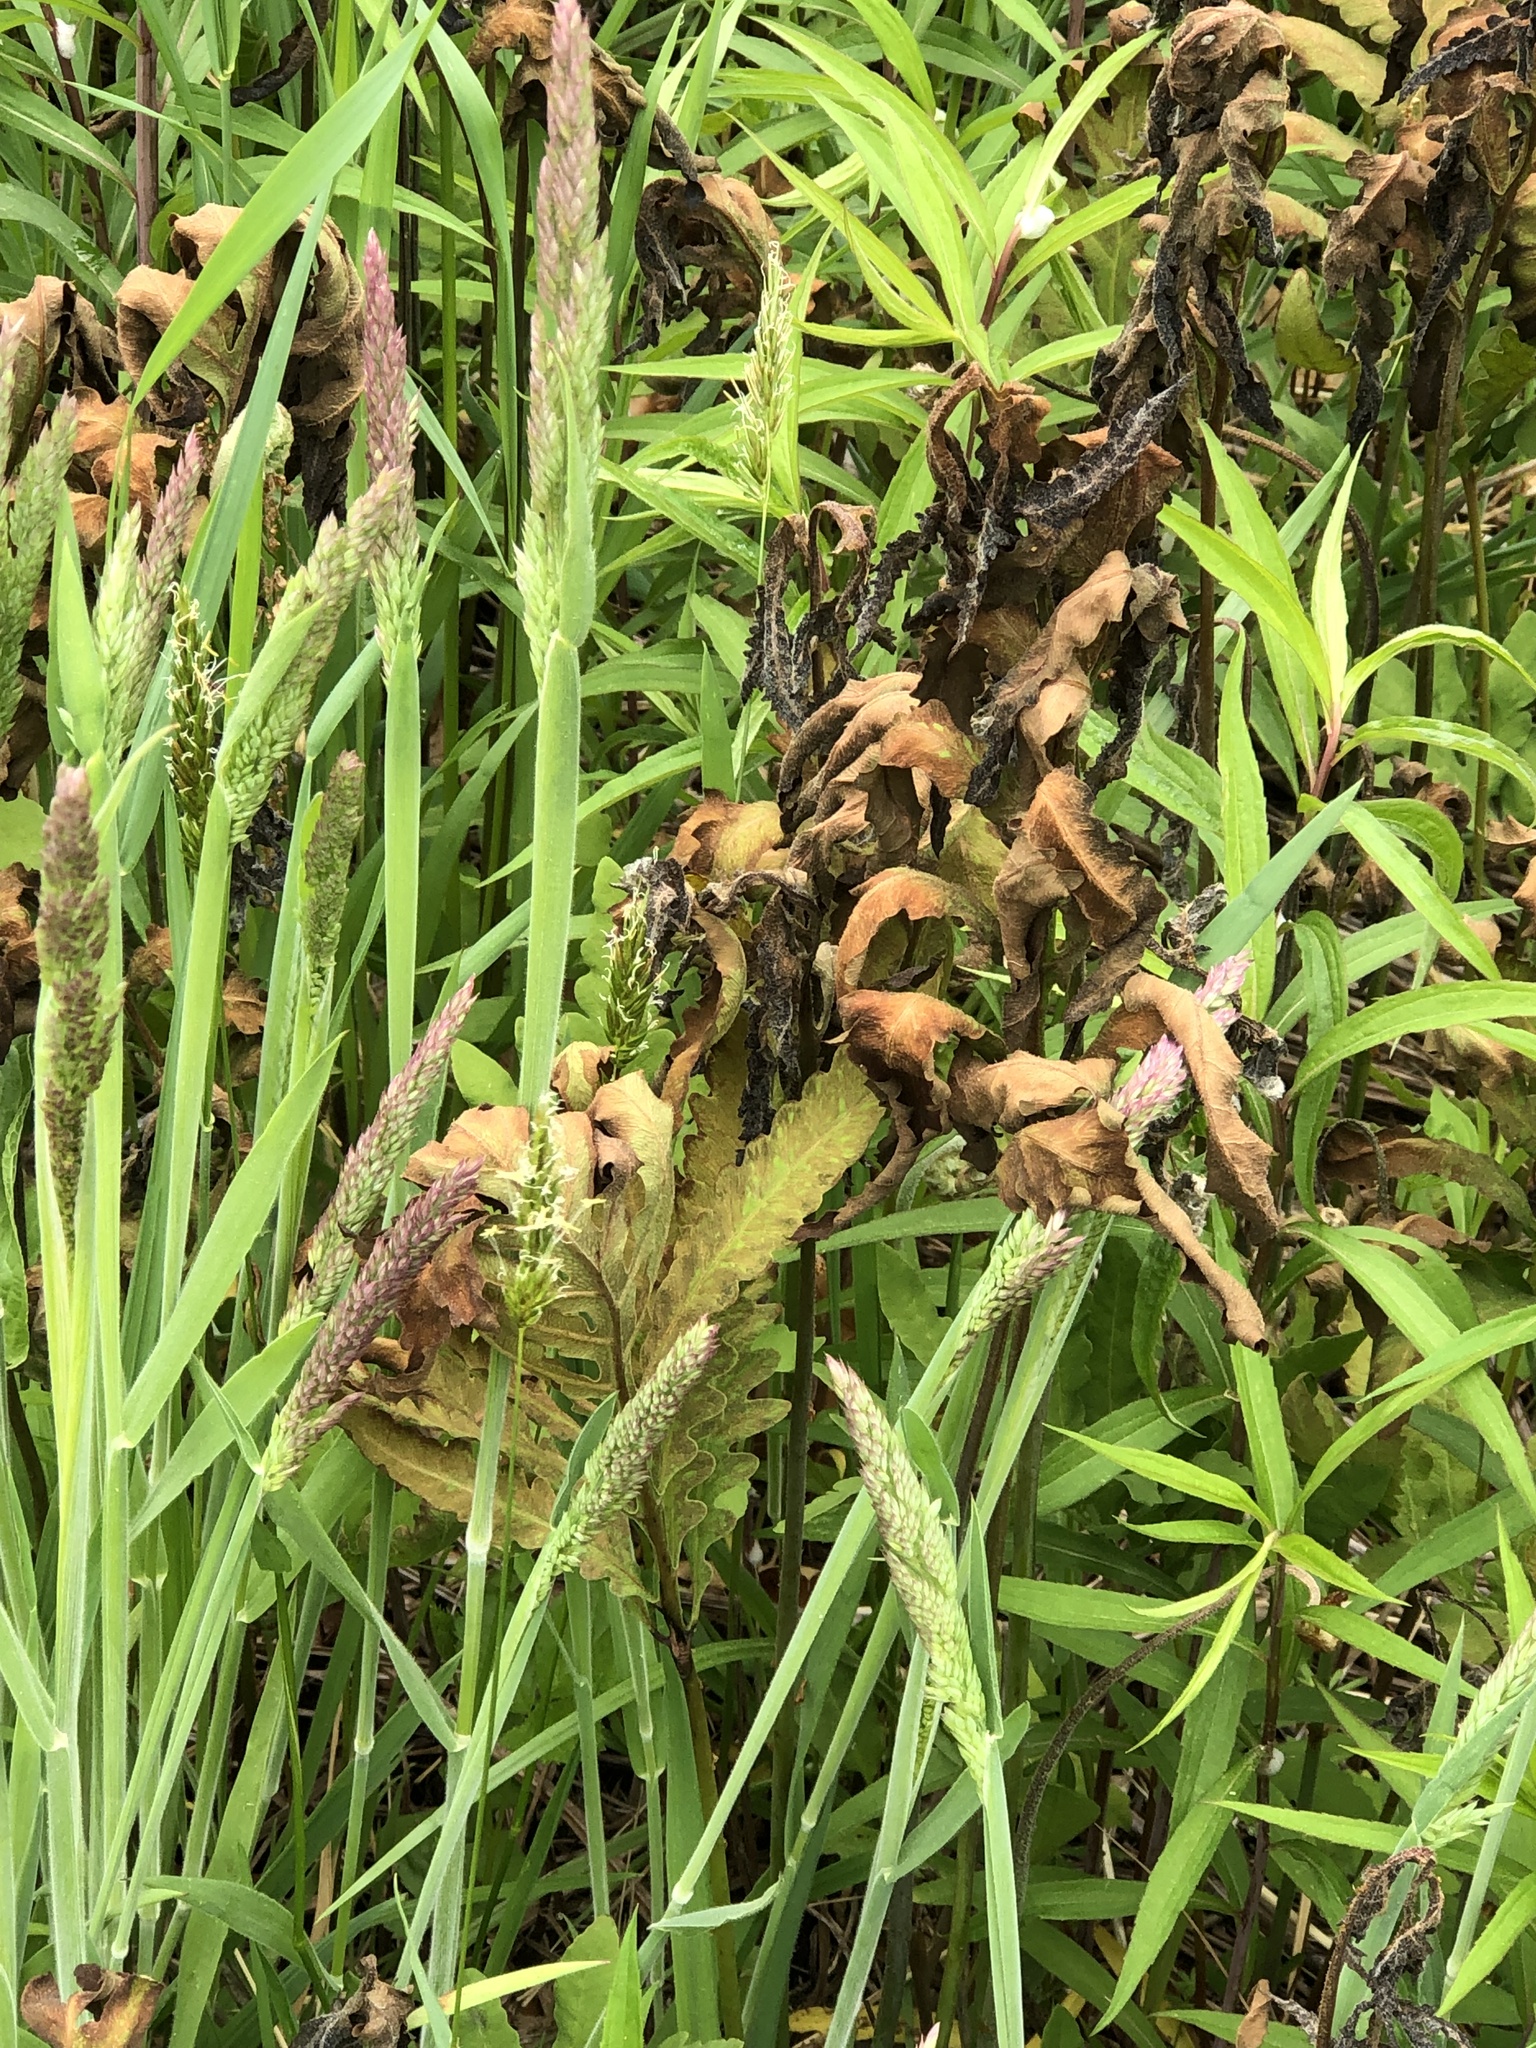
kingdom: Plantae
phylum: Tracheophyta
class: Polypodiopsida
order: Polypodiales
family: Onocleaceae
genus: Onoclea
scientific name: Onoclea sensibilis
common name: Sensitive fern
